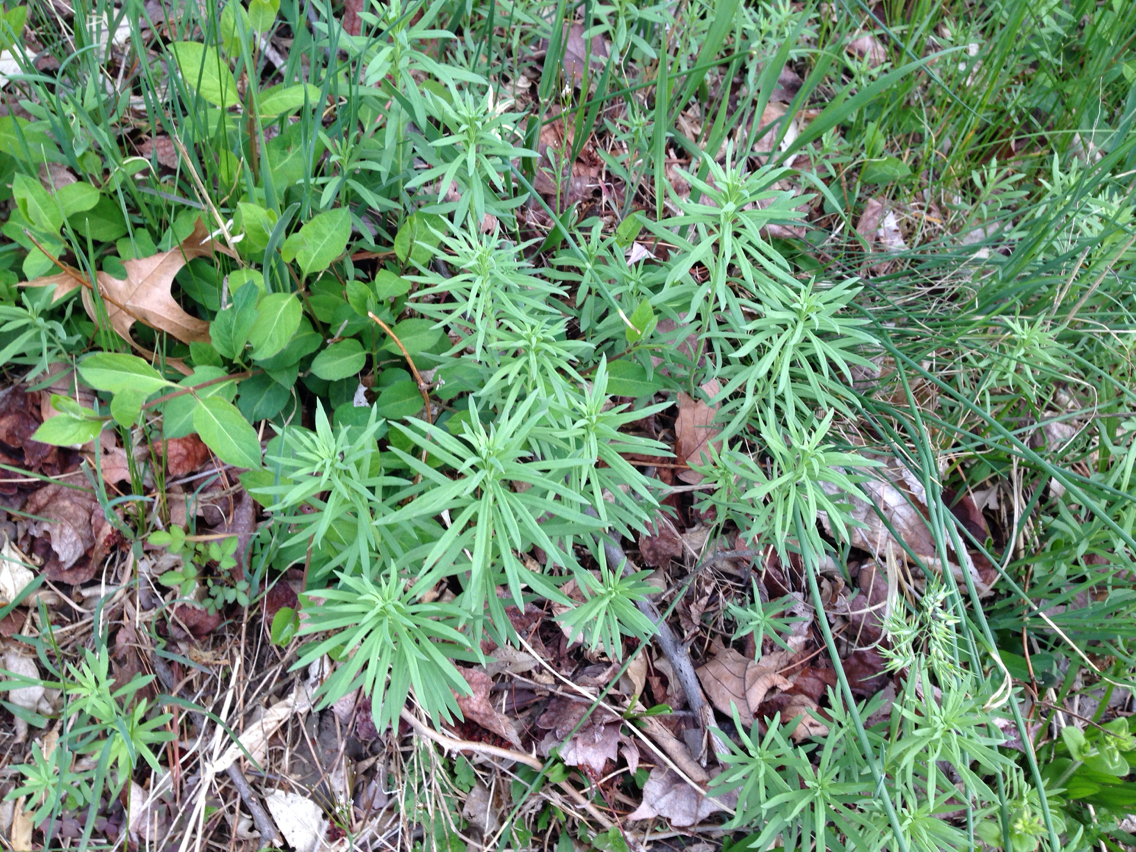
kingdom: Plantae
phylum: Tracheophyta
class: Magnoliopsida
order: Lamiales
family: Plantaginaceae
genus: Linaria
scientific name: Linaria vulgaris
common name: Butter and eggs
